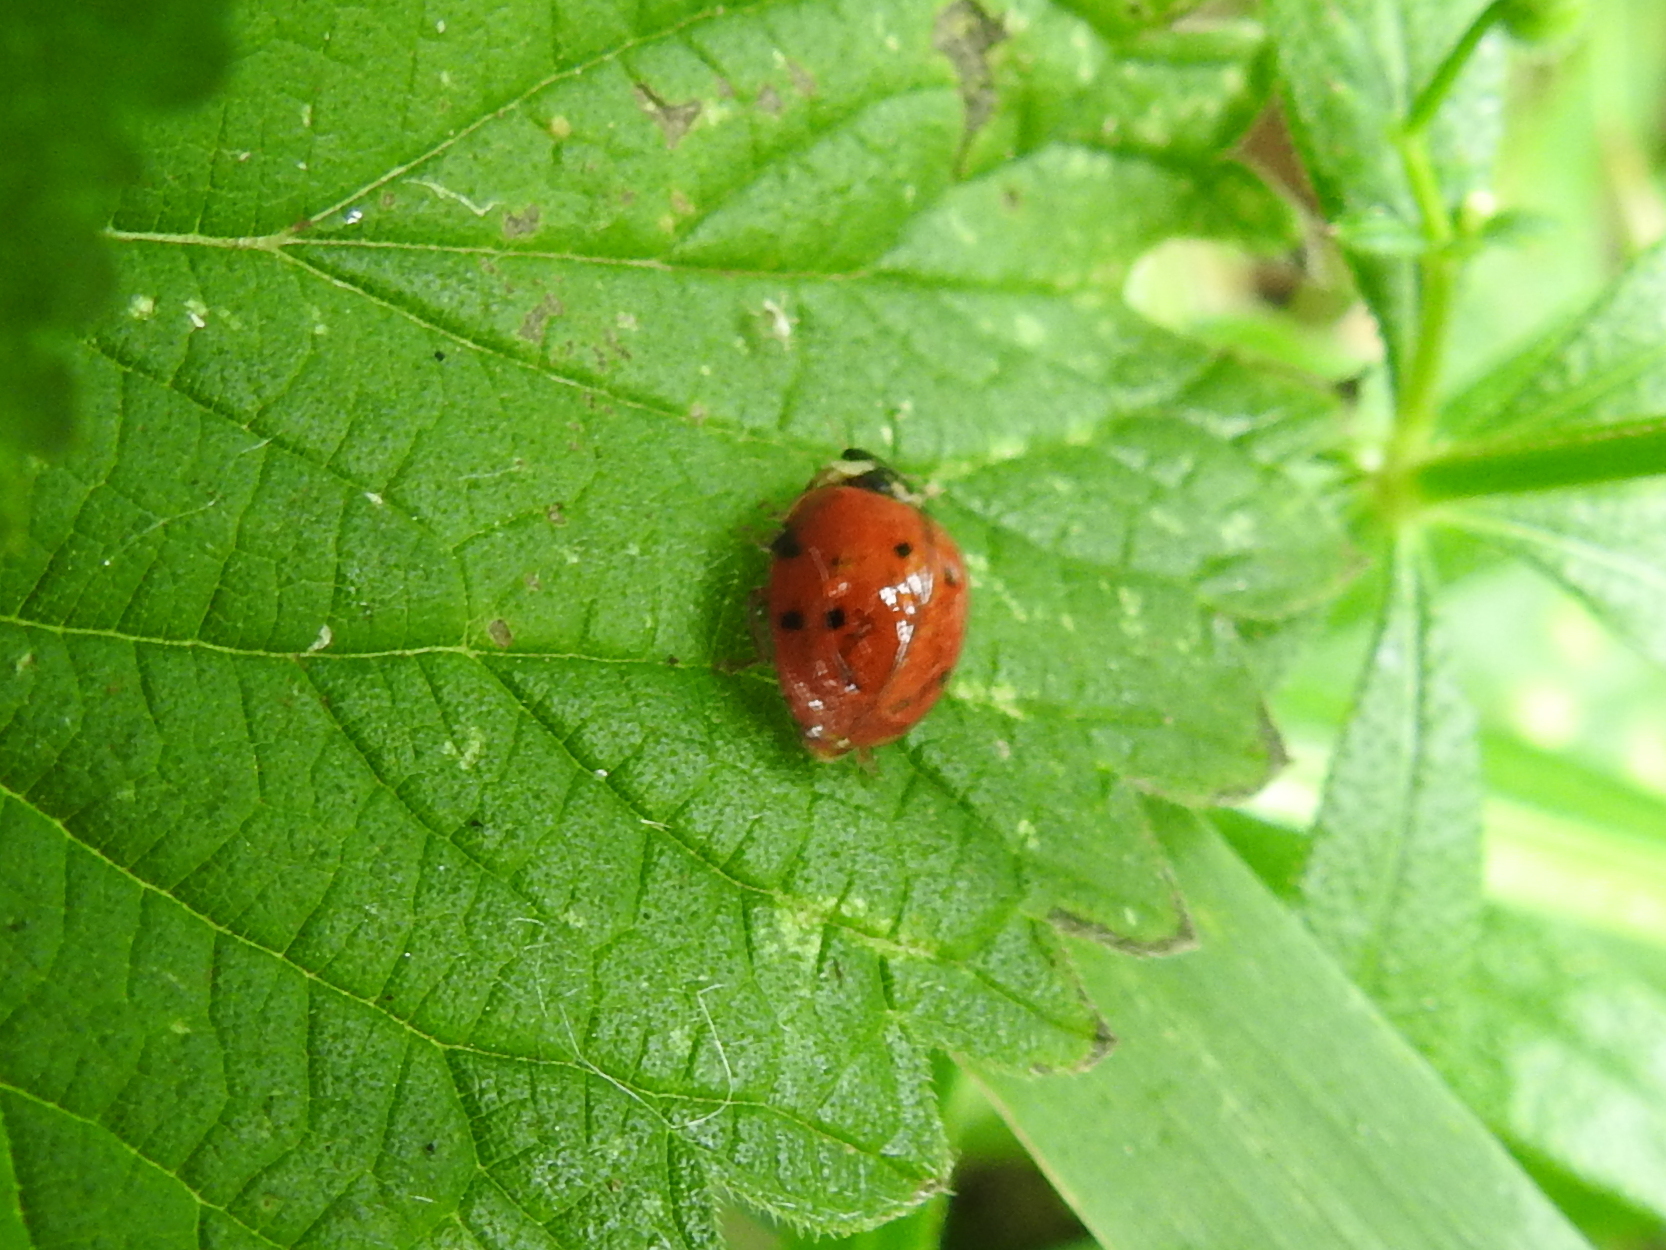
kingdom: Animalia
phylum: Arthropoda
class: Insecta
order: Coleoptera
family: Coccinellidae
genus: Harmonia
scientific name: Harmonia axyridis
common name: Harlequin ladybird
